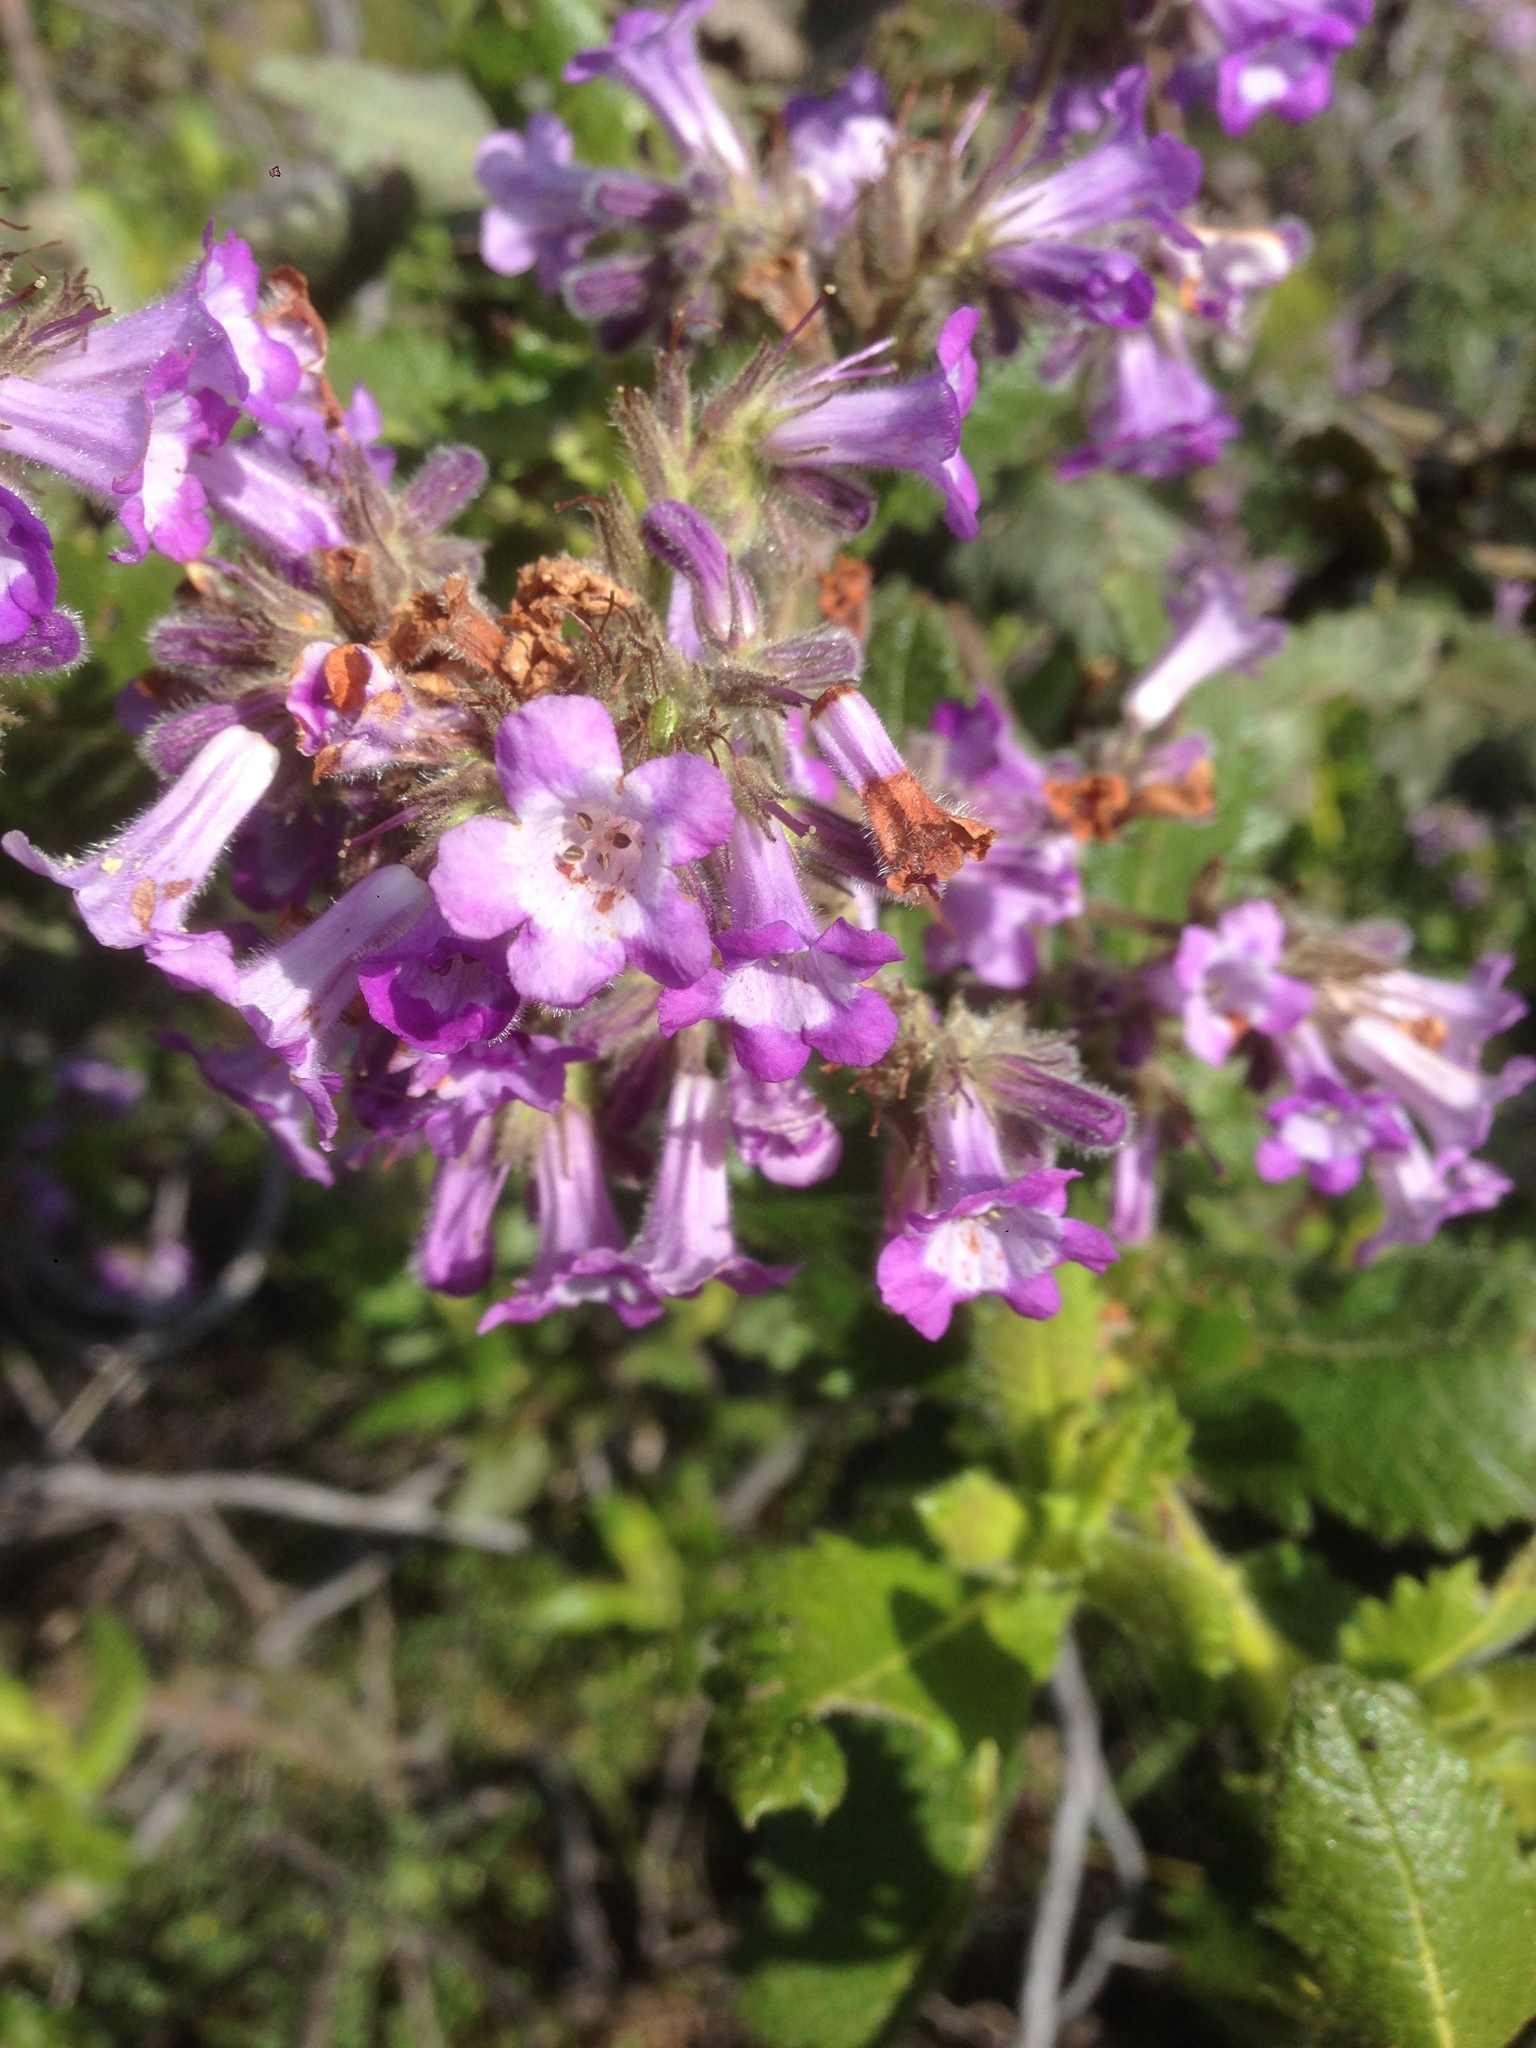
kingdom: Plantae
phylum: Tracheophyta
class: Magnoliopsida
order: Boraginales
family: Namaceae
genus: Eriodictyon
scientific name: Eriodictyon sessilifolium
